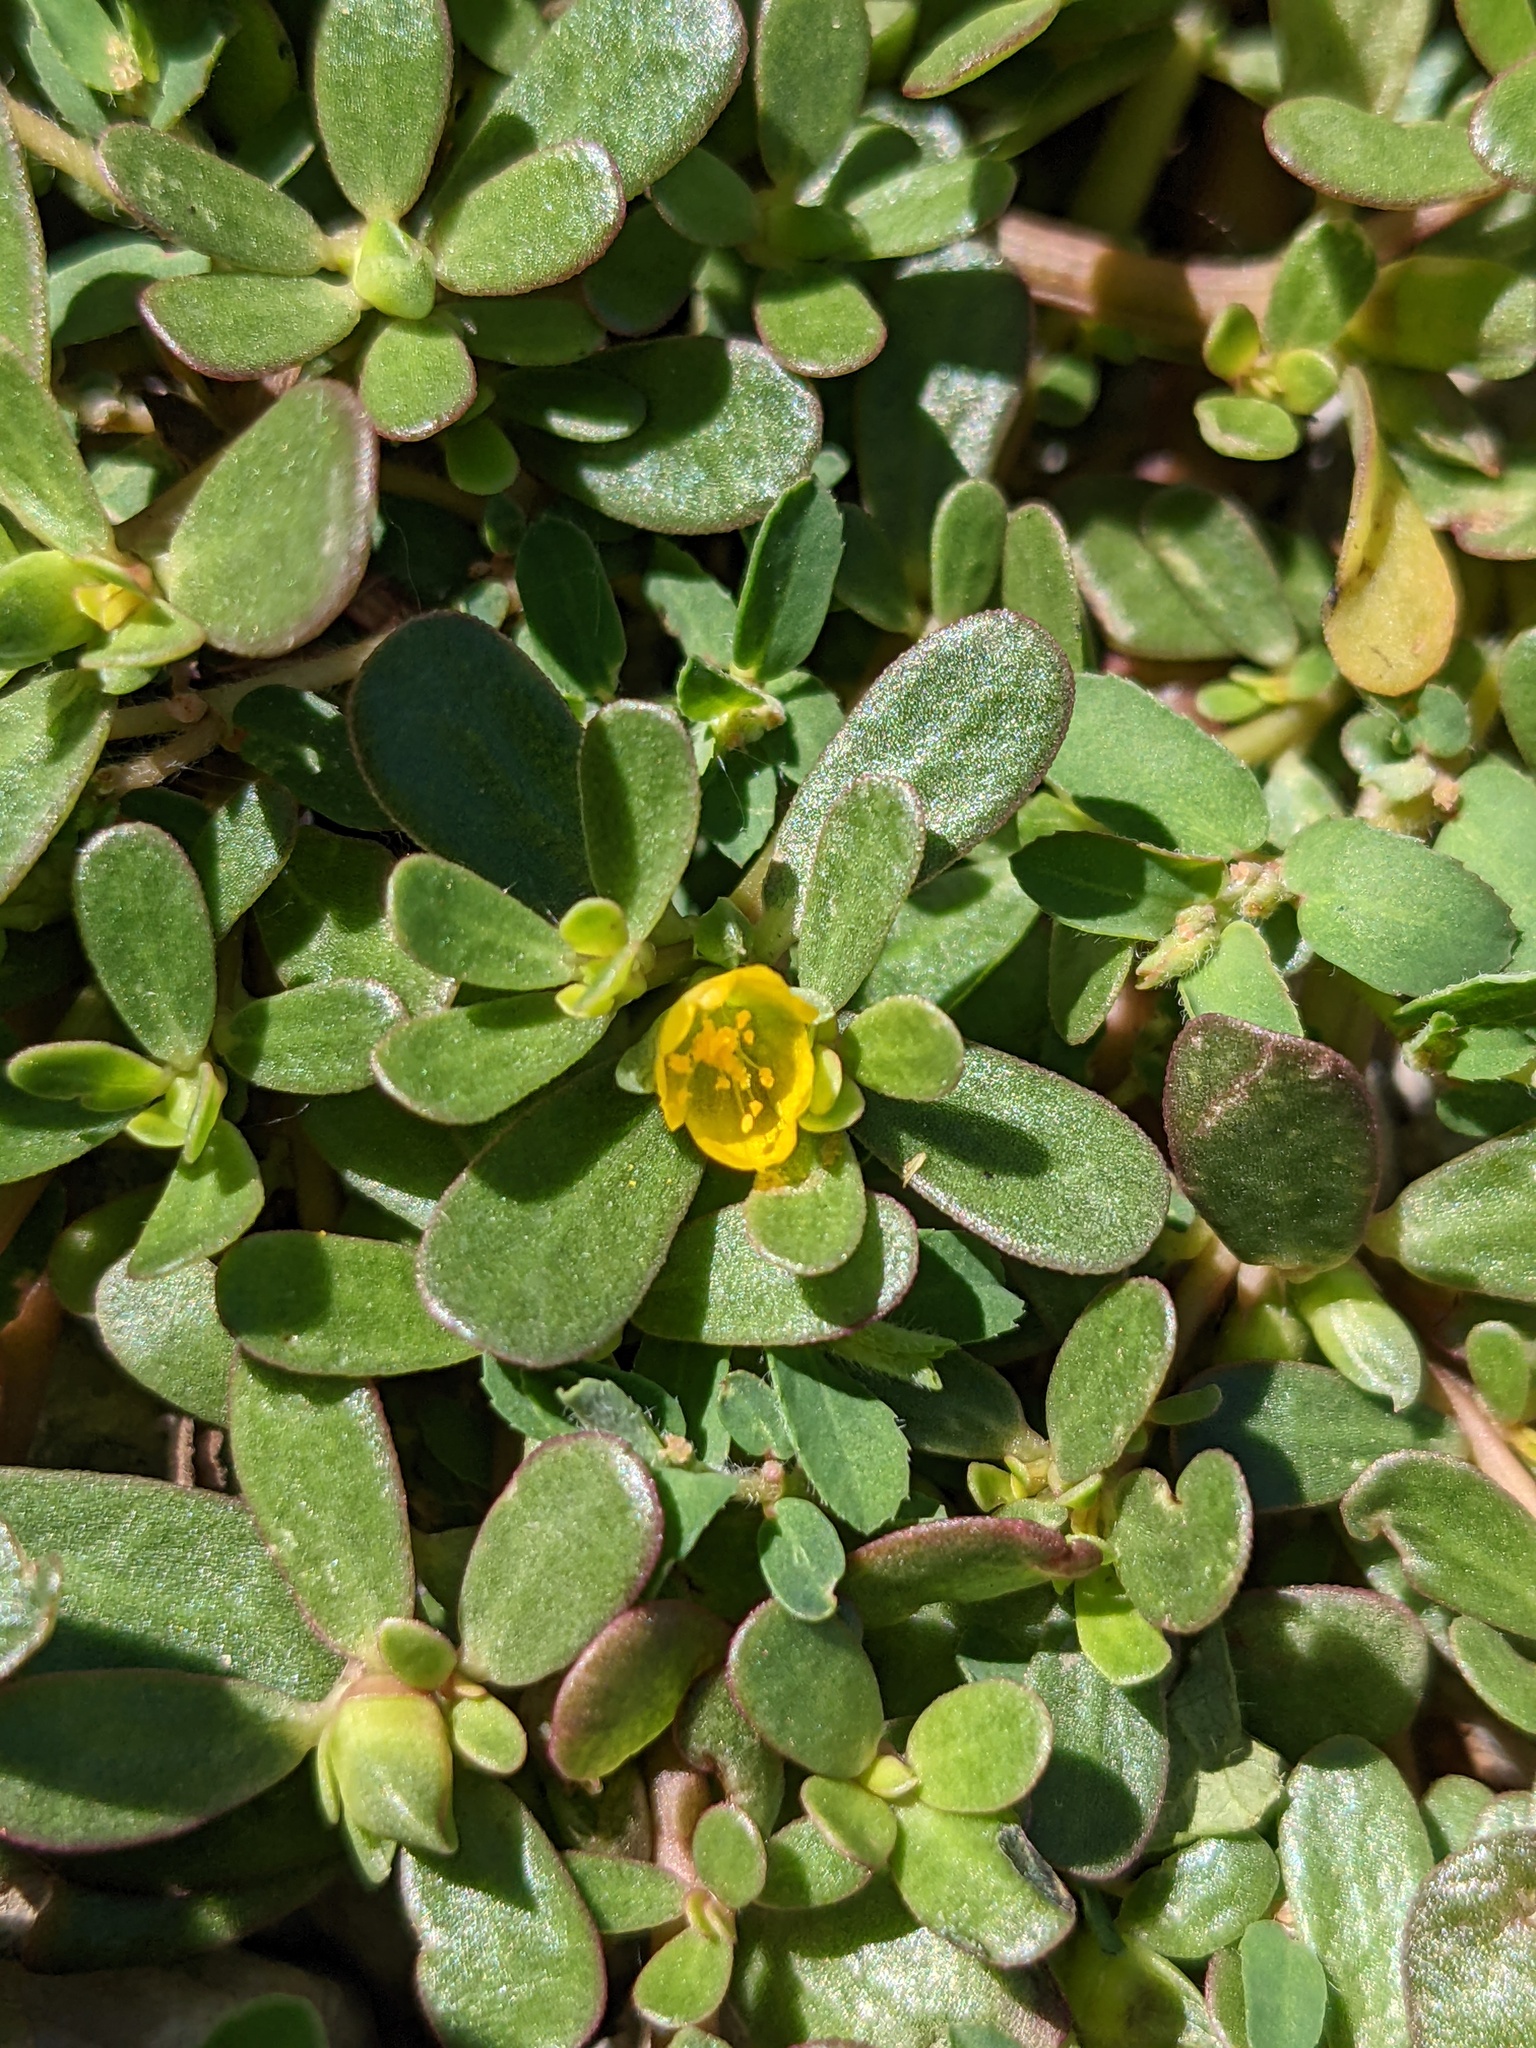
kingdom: Plantae
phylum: Tracheophyta
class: Magnoliopsida
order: Caryophyllales
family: Portulacaceae
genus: Portulaca
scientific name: Portulaca oleracea
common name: Common purslane
